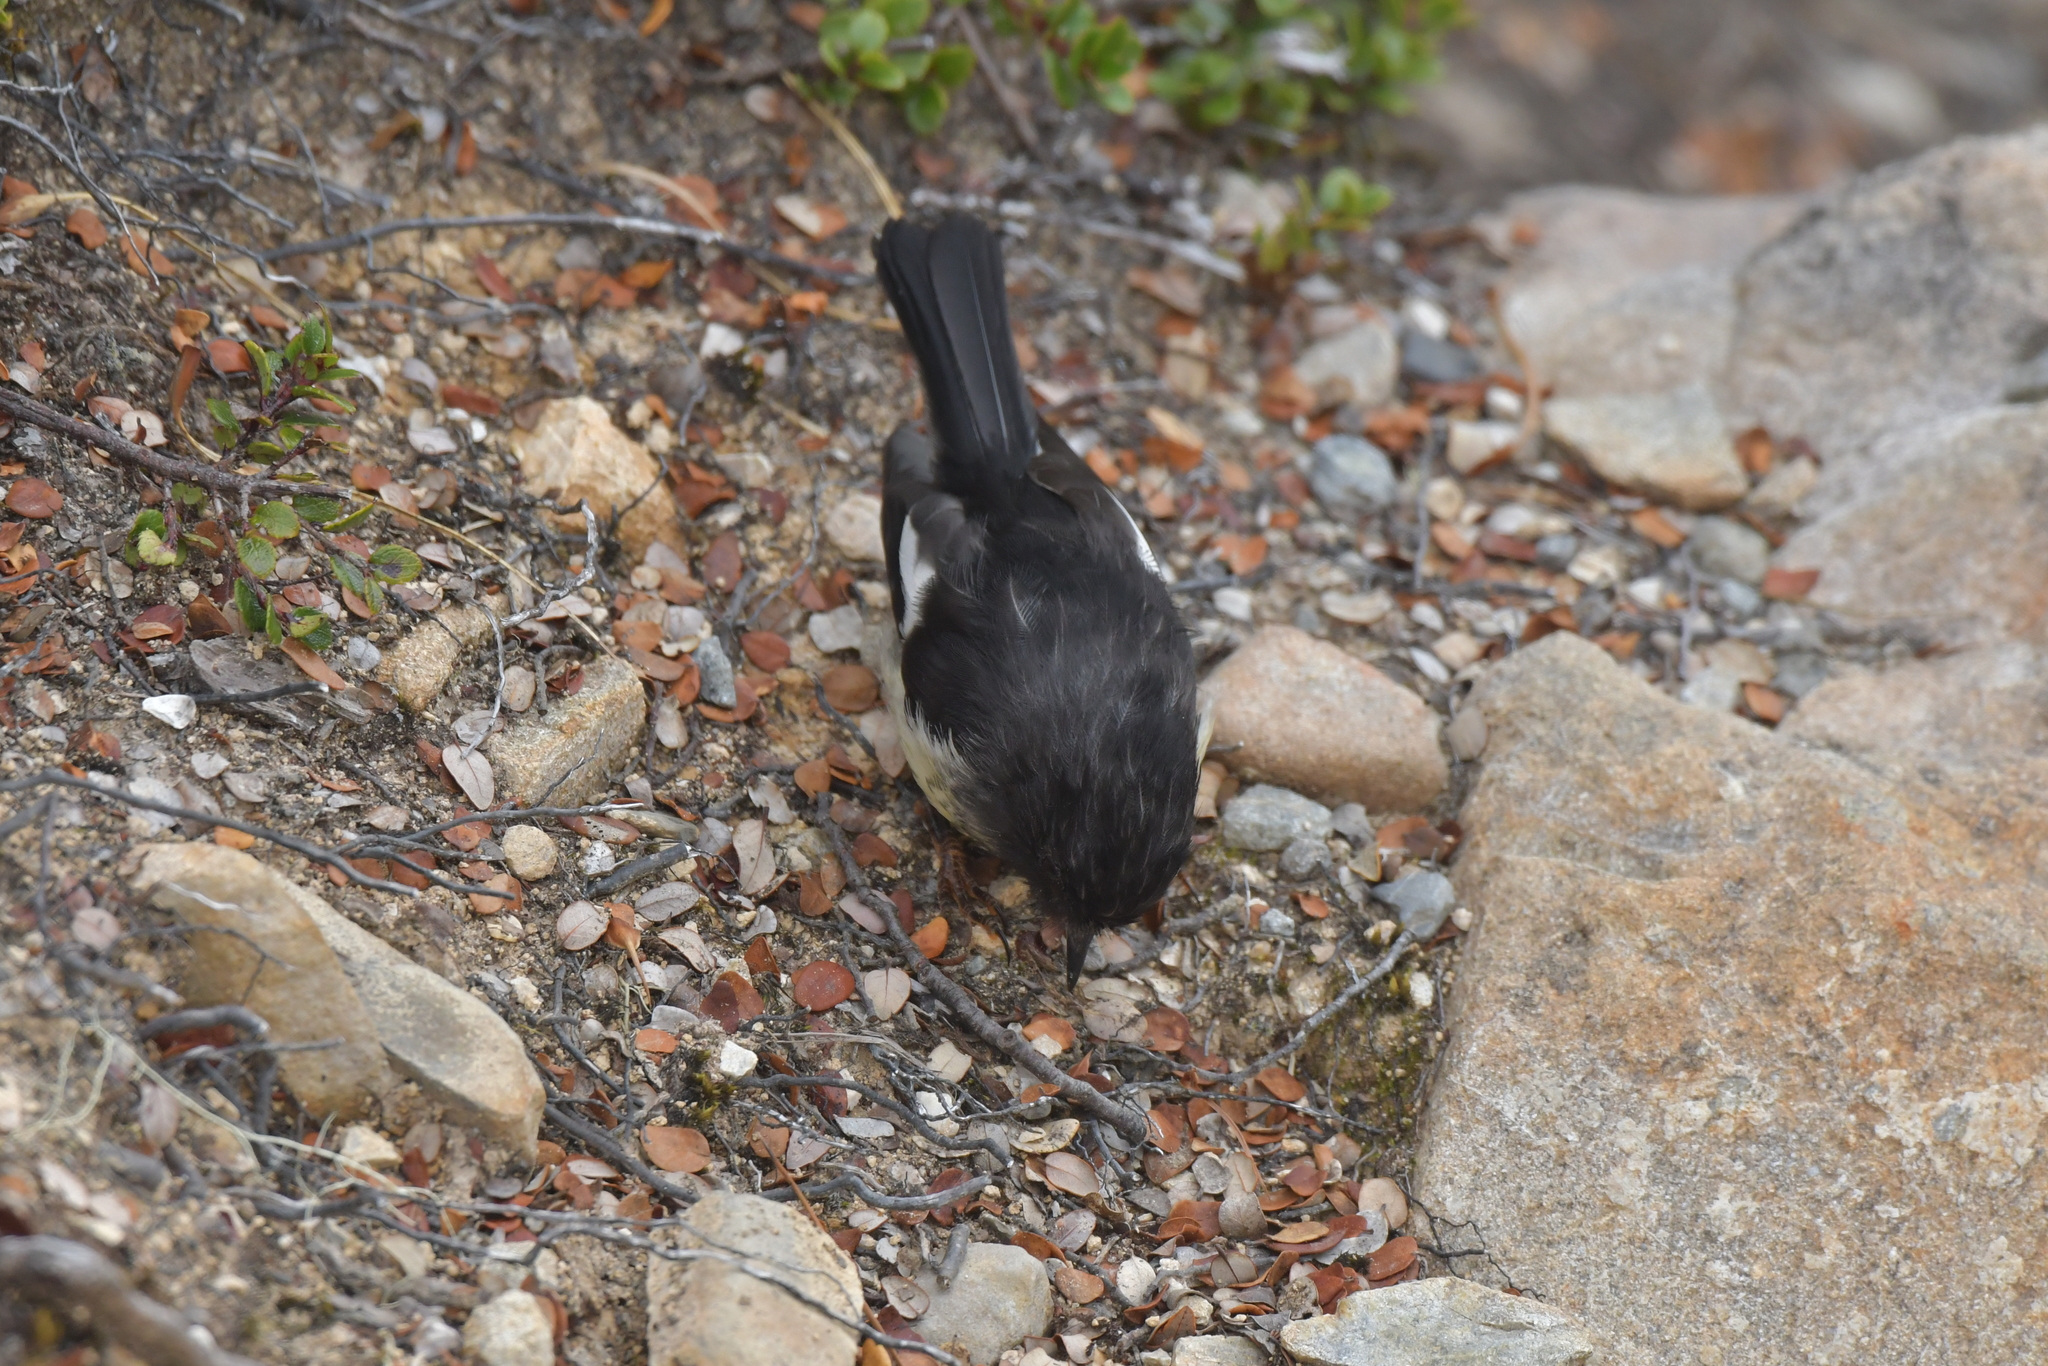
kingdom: Animalia
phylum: Chordata
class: Aves
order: Passeriformes
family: Petroicidae
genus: Petroica
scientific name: Petroica macrocephala
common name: Tomtit
